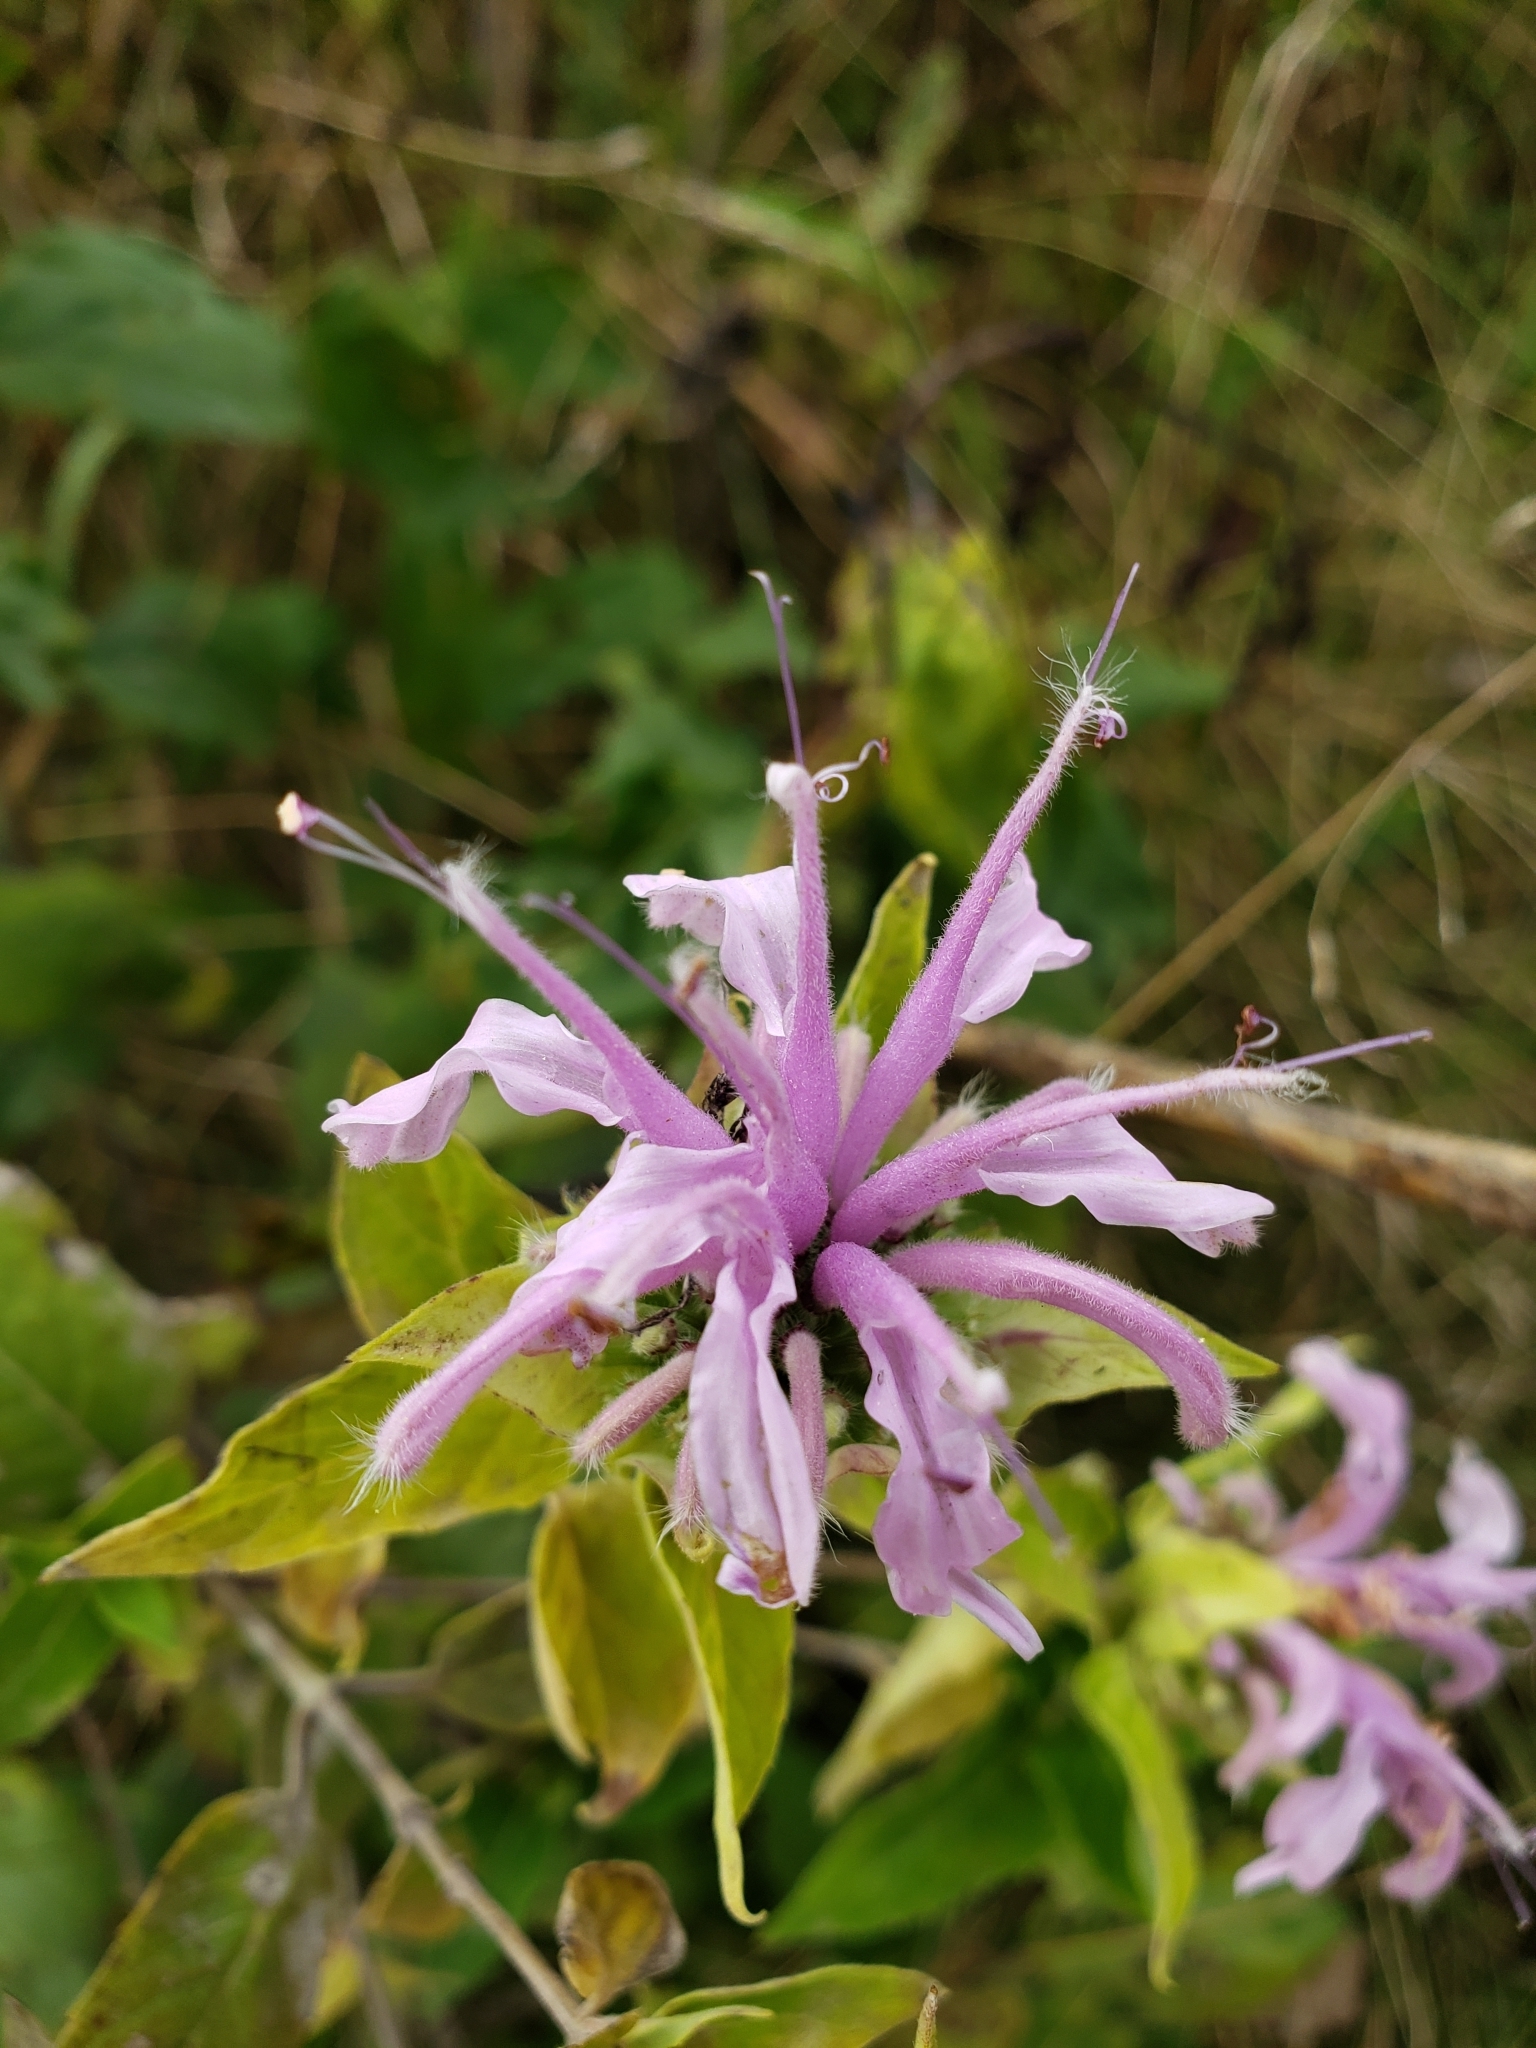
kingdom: Plantae
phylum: Tracheophyta
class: Magnoliopsida
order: Lamiales
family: Lamiaceae
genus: Monarda
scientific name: Monarda fistulosa
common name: Purple beebalm
